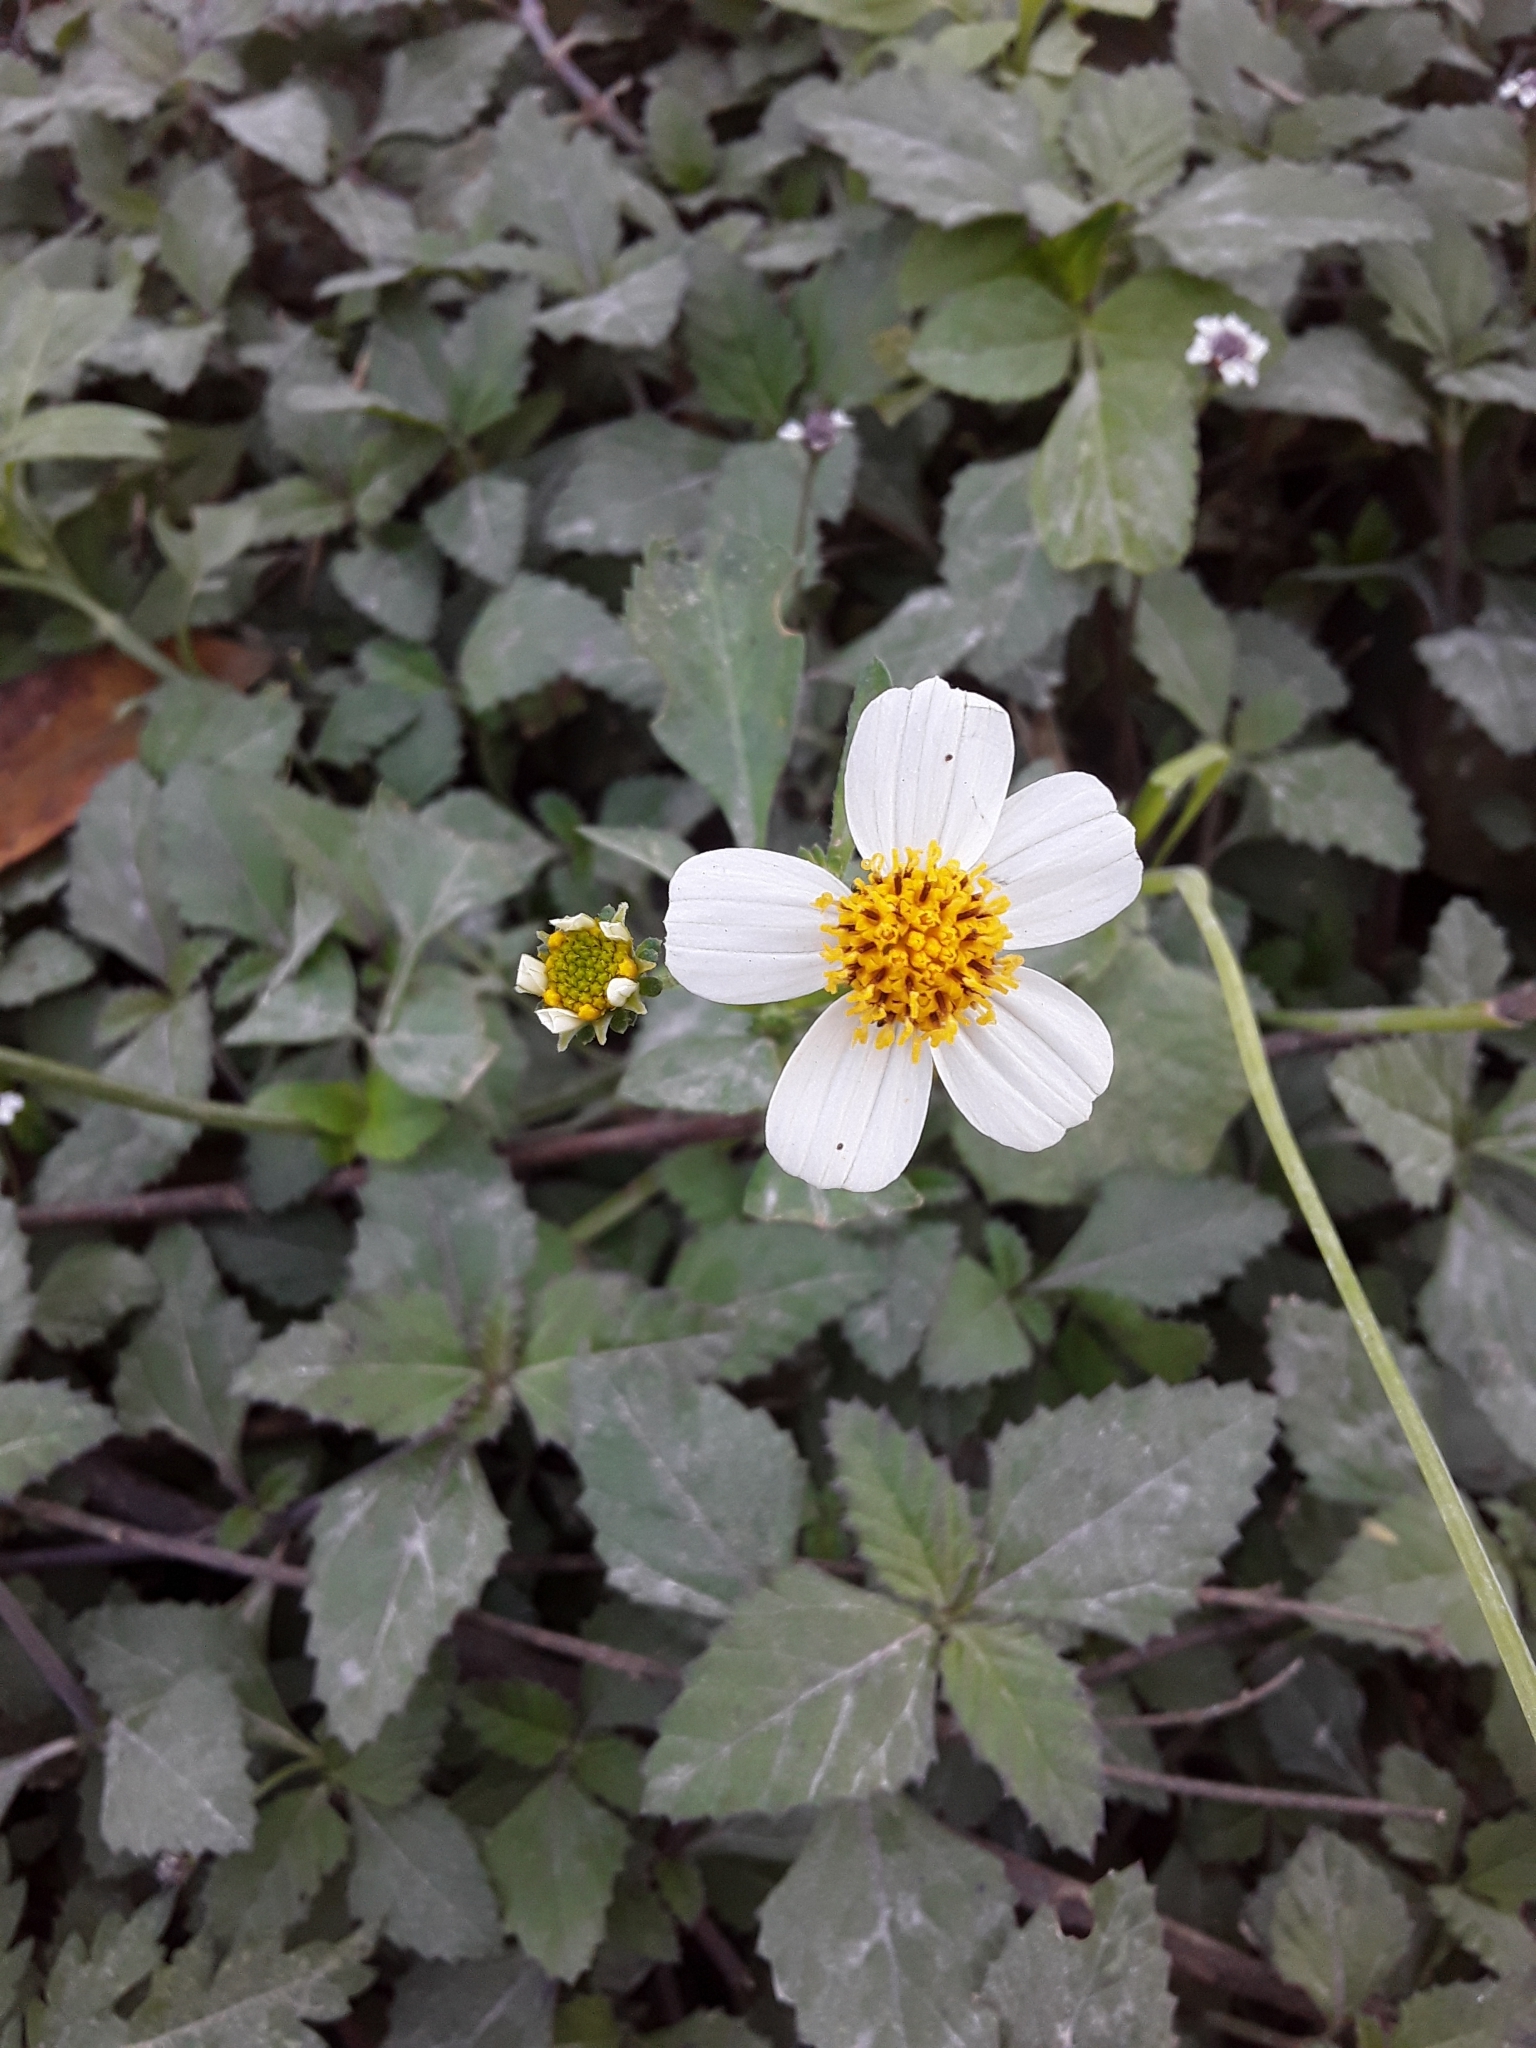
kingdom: Plantae
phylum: Tracheophyta
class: Magnoliopsida
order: Asterales
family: Asteraceae
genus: Bidens
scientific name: Bidens alba
